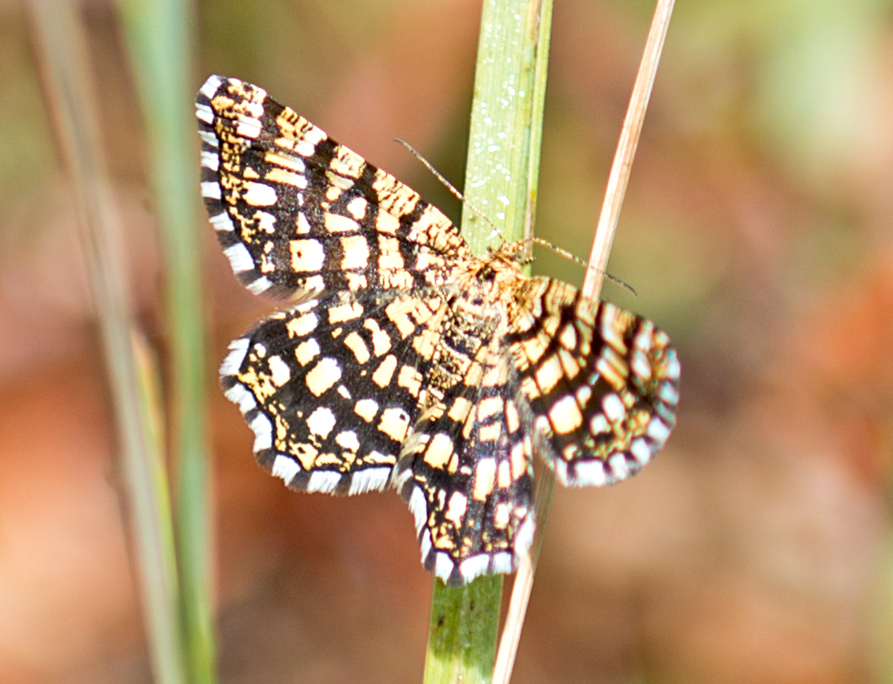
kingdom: Animalia
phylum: Arthropoda
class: Insecta
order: Lepidoptera
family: Geometridae
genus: Chiasmia
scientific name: Chiasmia clathrata
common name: Latticed heath
